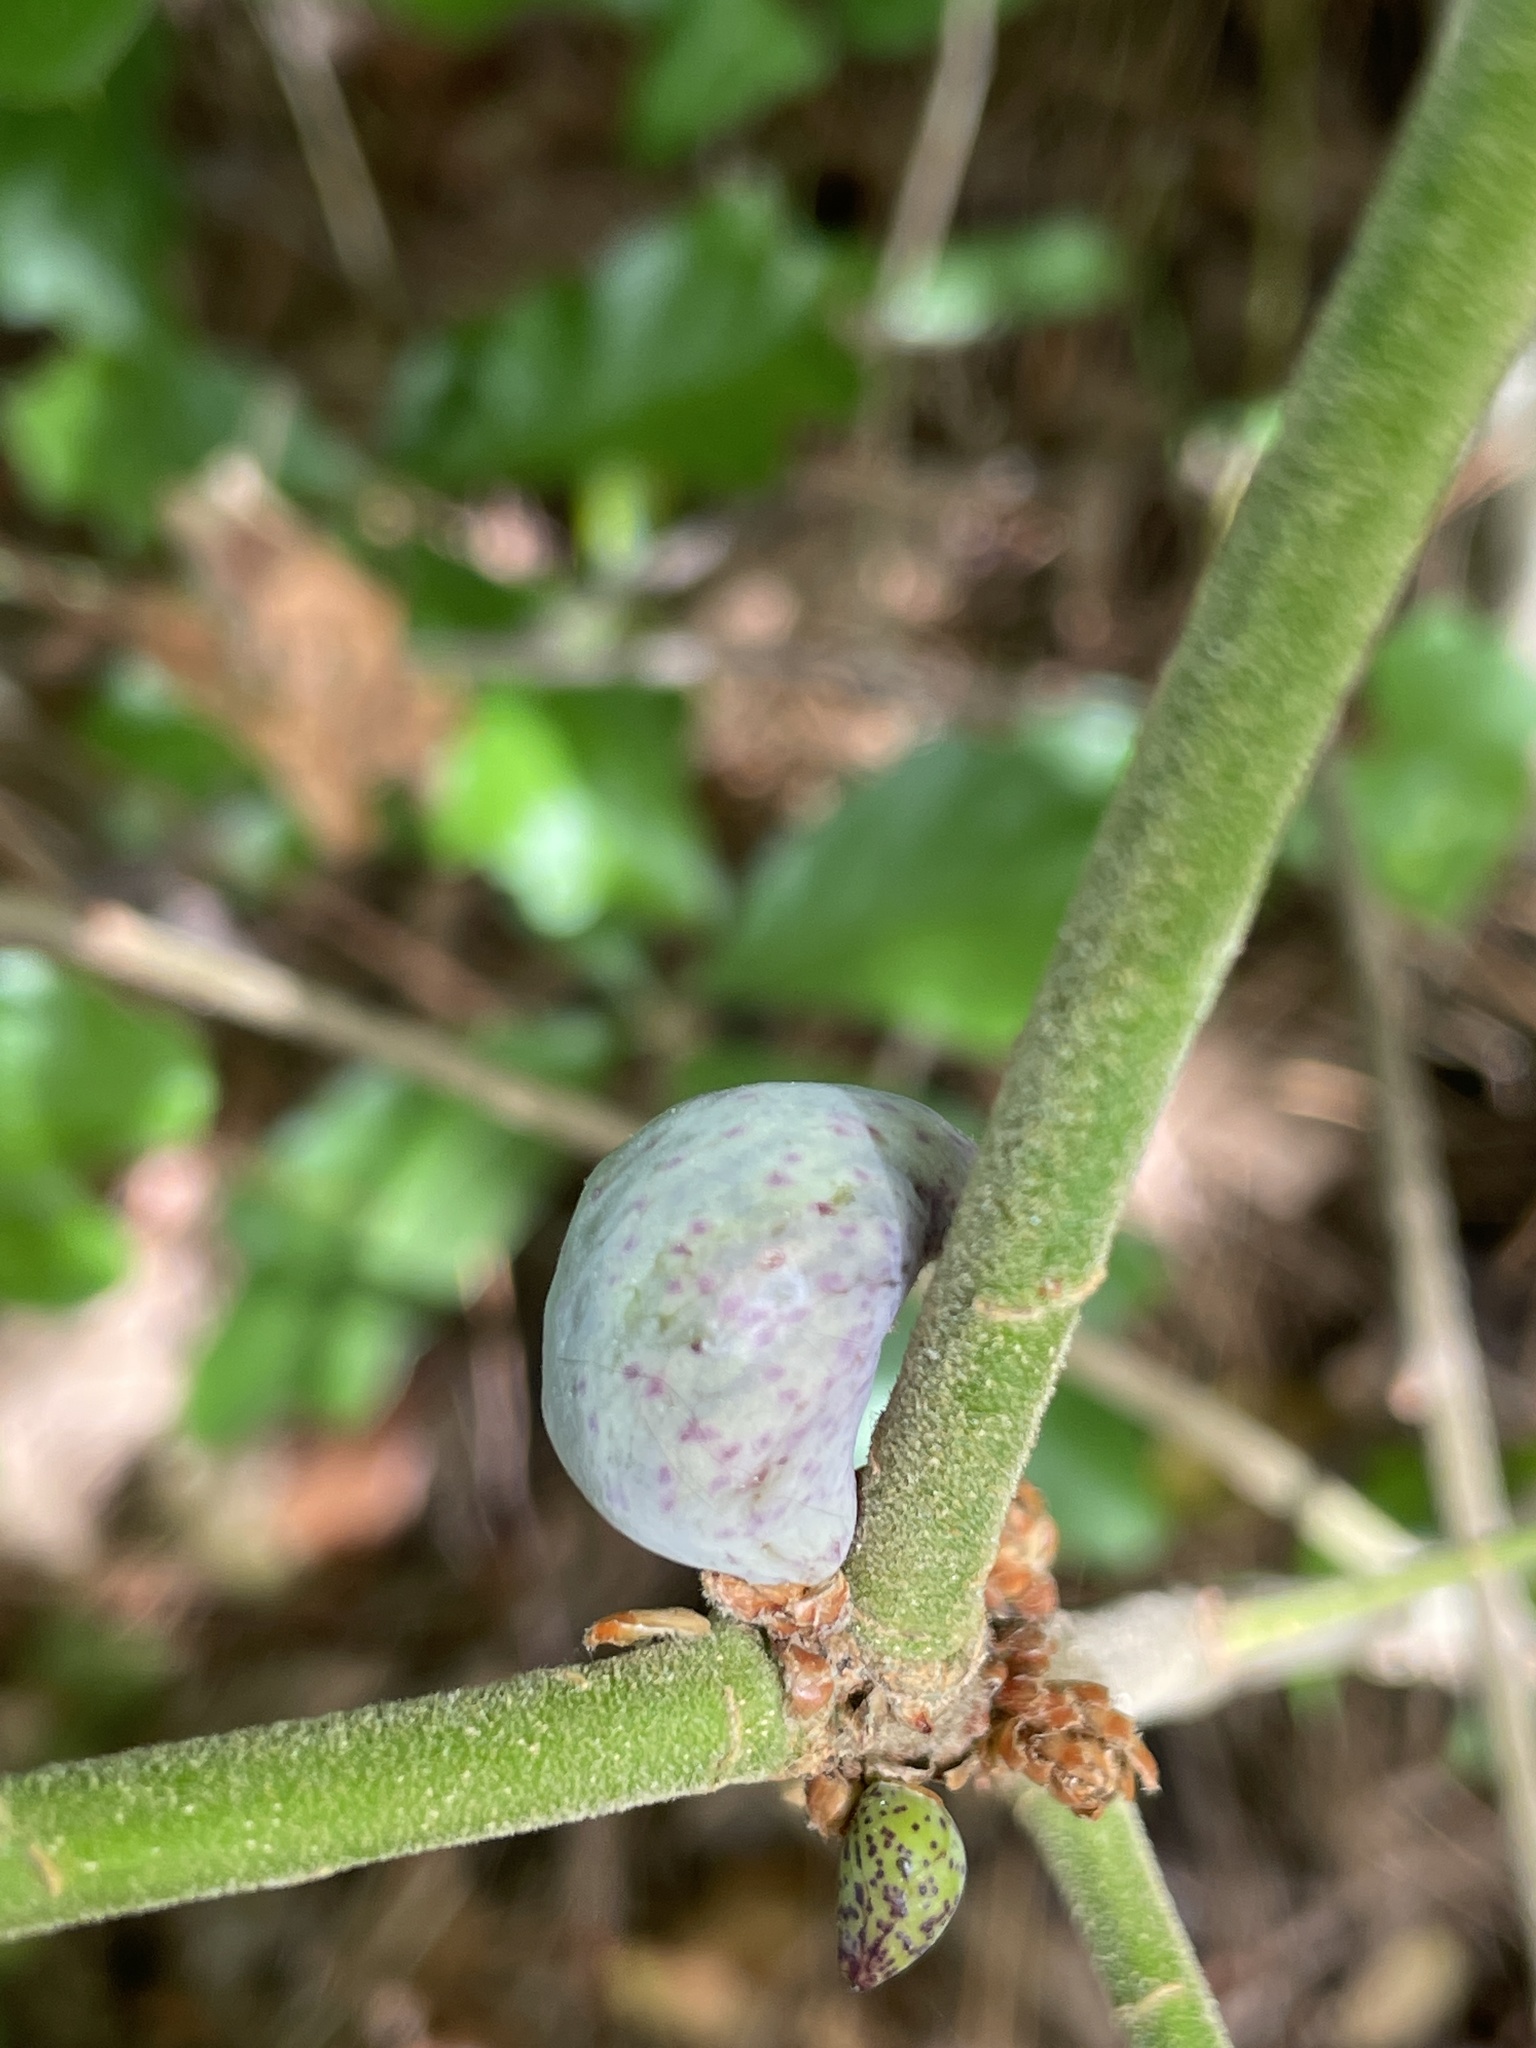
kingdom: Animalia
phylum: Arthropoda
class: Insecta
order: Hymenoptera
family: Cynipidae
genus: Amphibolips
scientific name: Amphibolips
